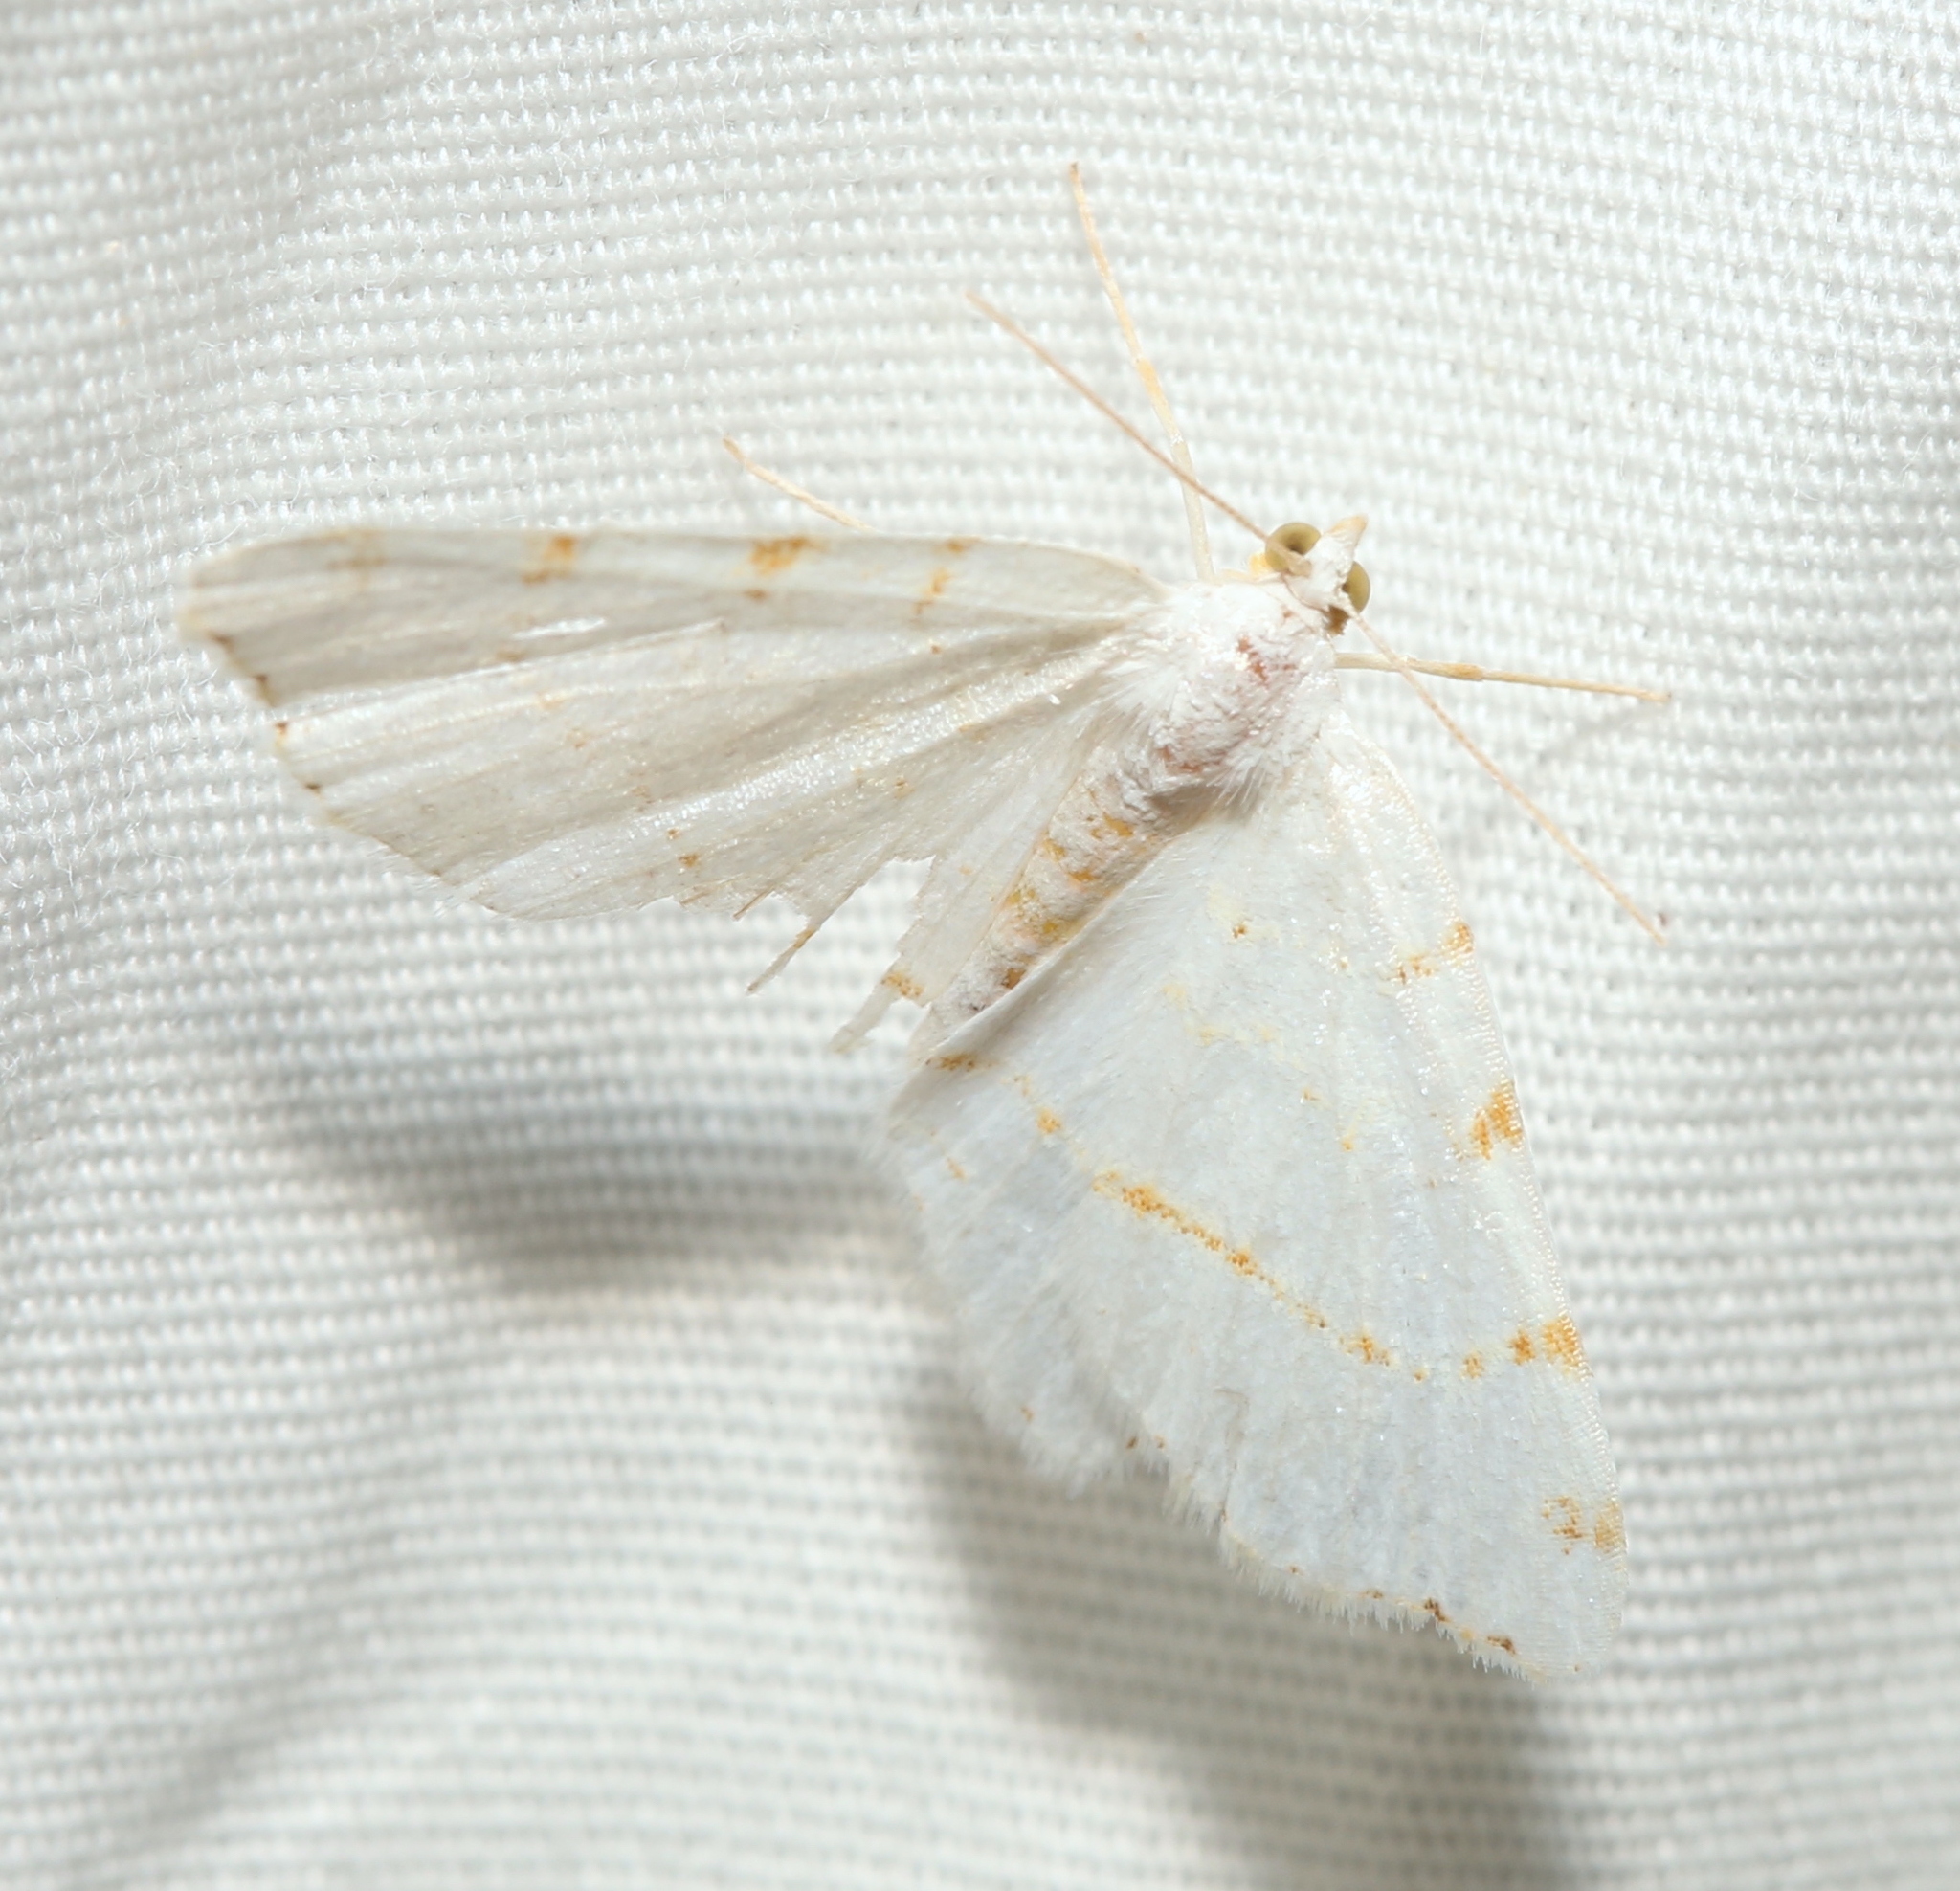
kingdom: Animalia
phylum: Arthropoda
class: Insecta
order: Lepidoptera
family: Geometridae
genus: Macaria
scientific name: Macaria pustularia
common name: Lesser maple spanworm moth
